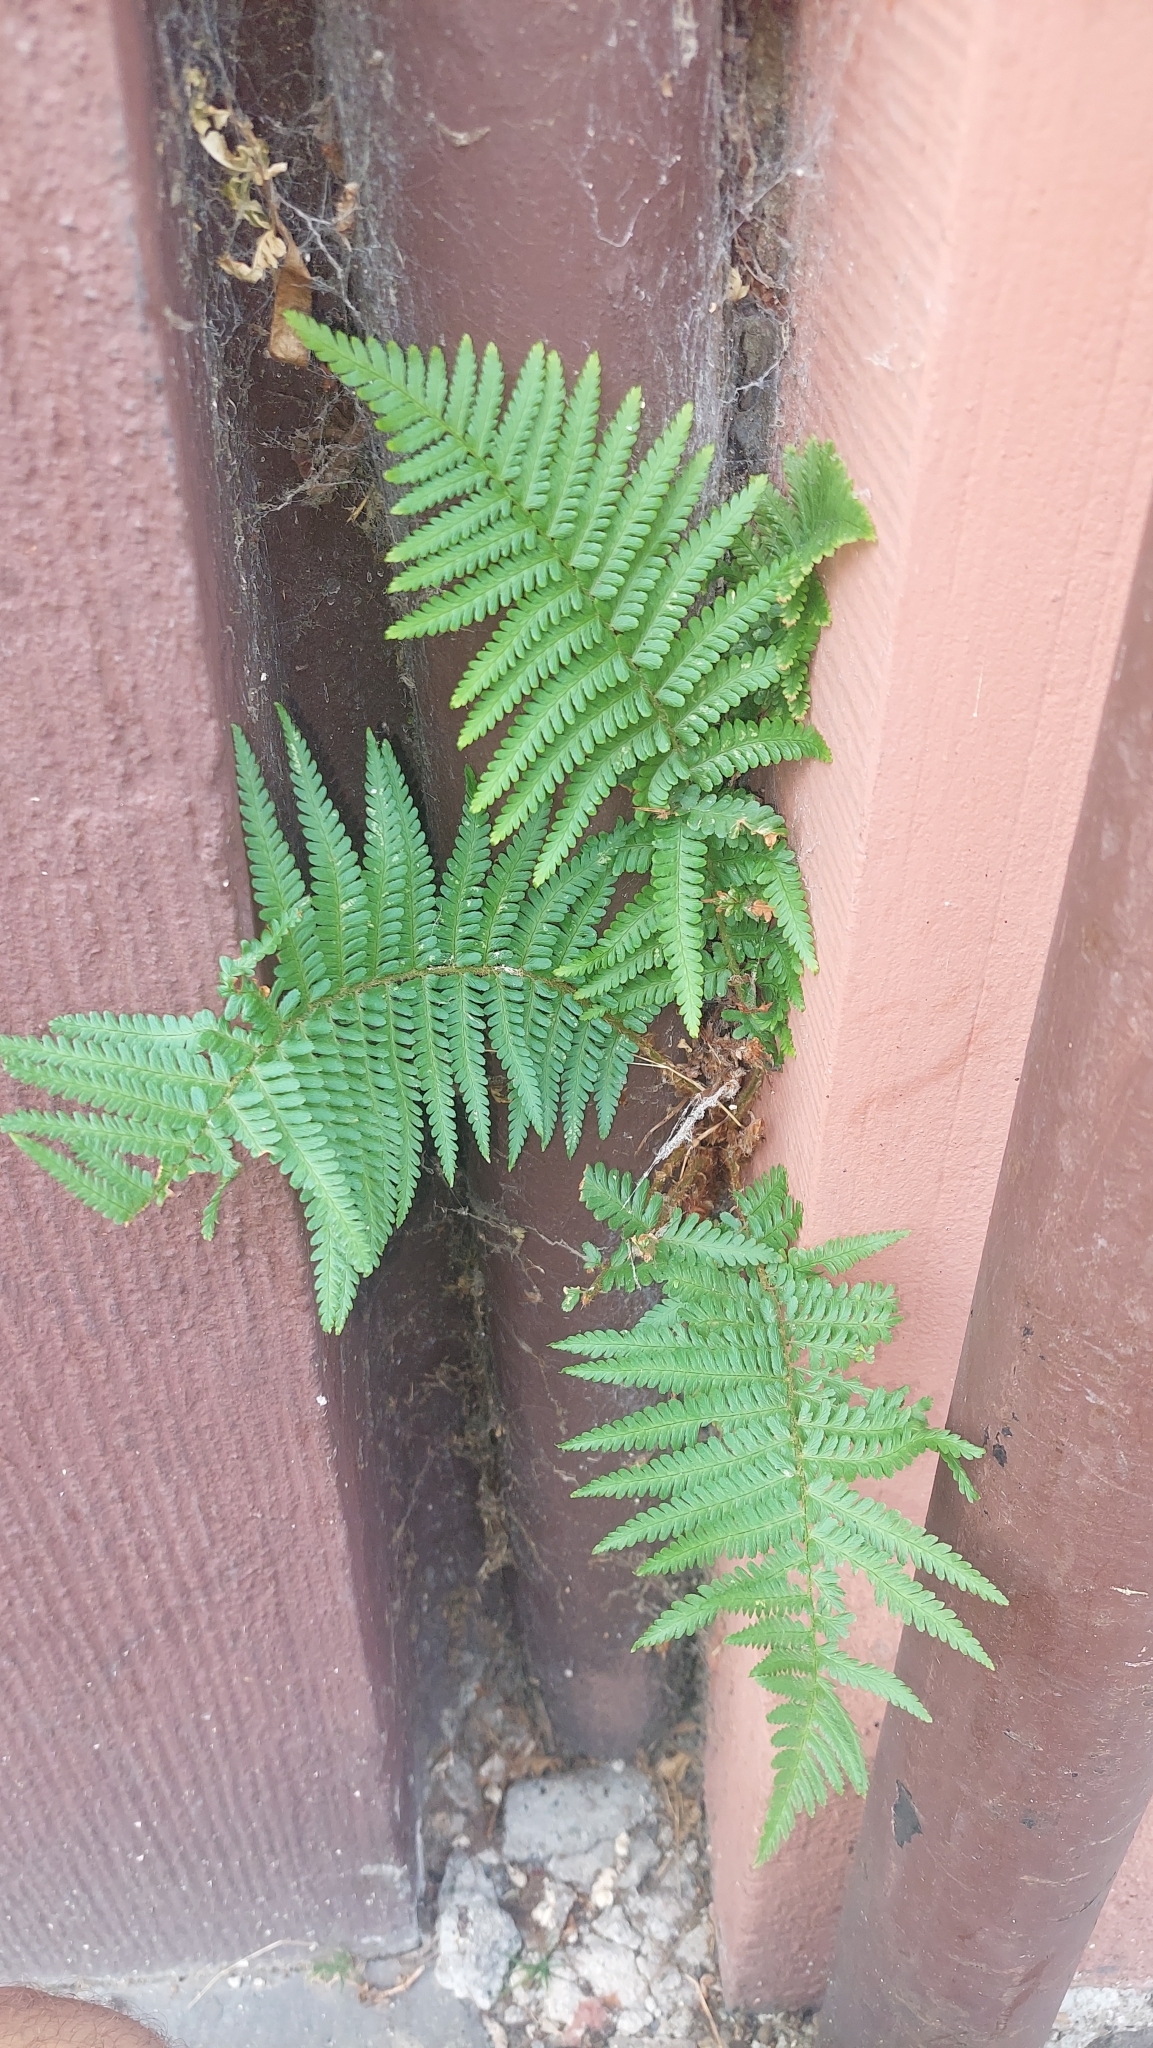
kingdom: Plantae
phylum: Tracheophyta
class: Polypodiopsida
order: Polypodiales
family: Dryopteridaceae
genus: Dryopteris
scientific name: Dryopteris filix-mas
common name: Male fern
